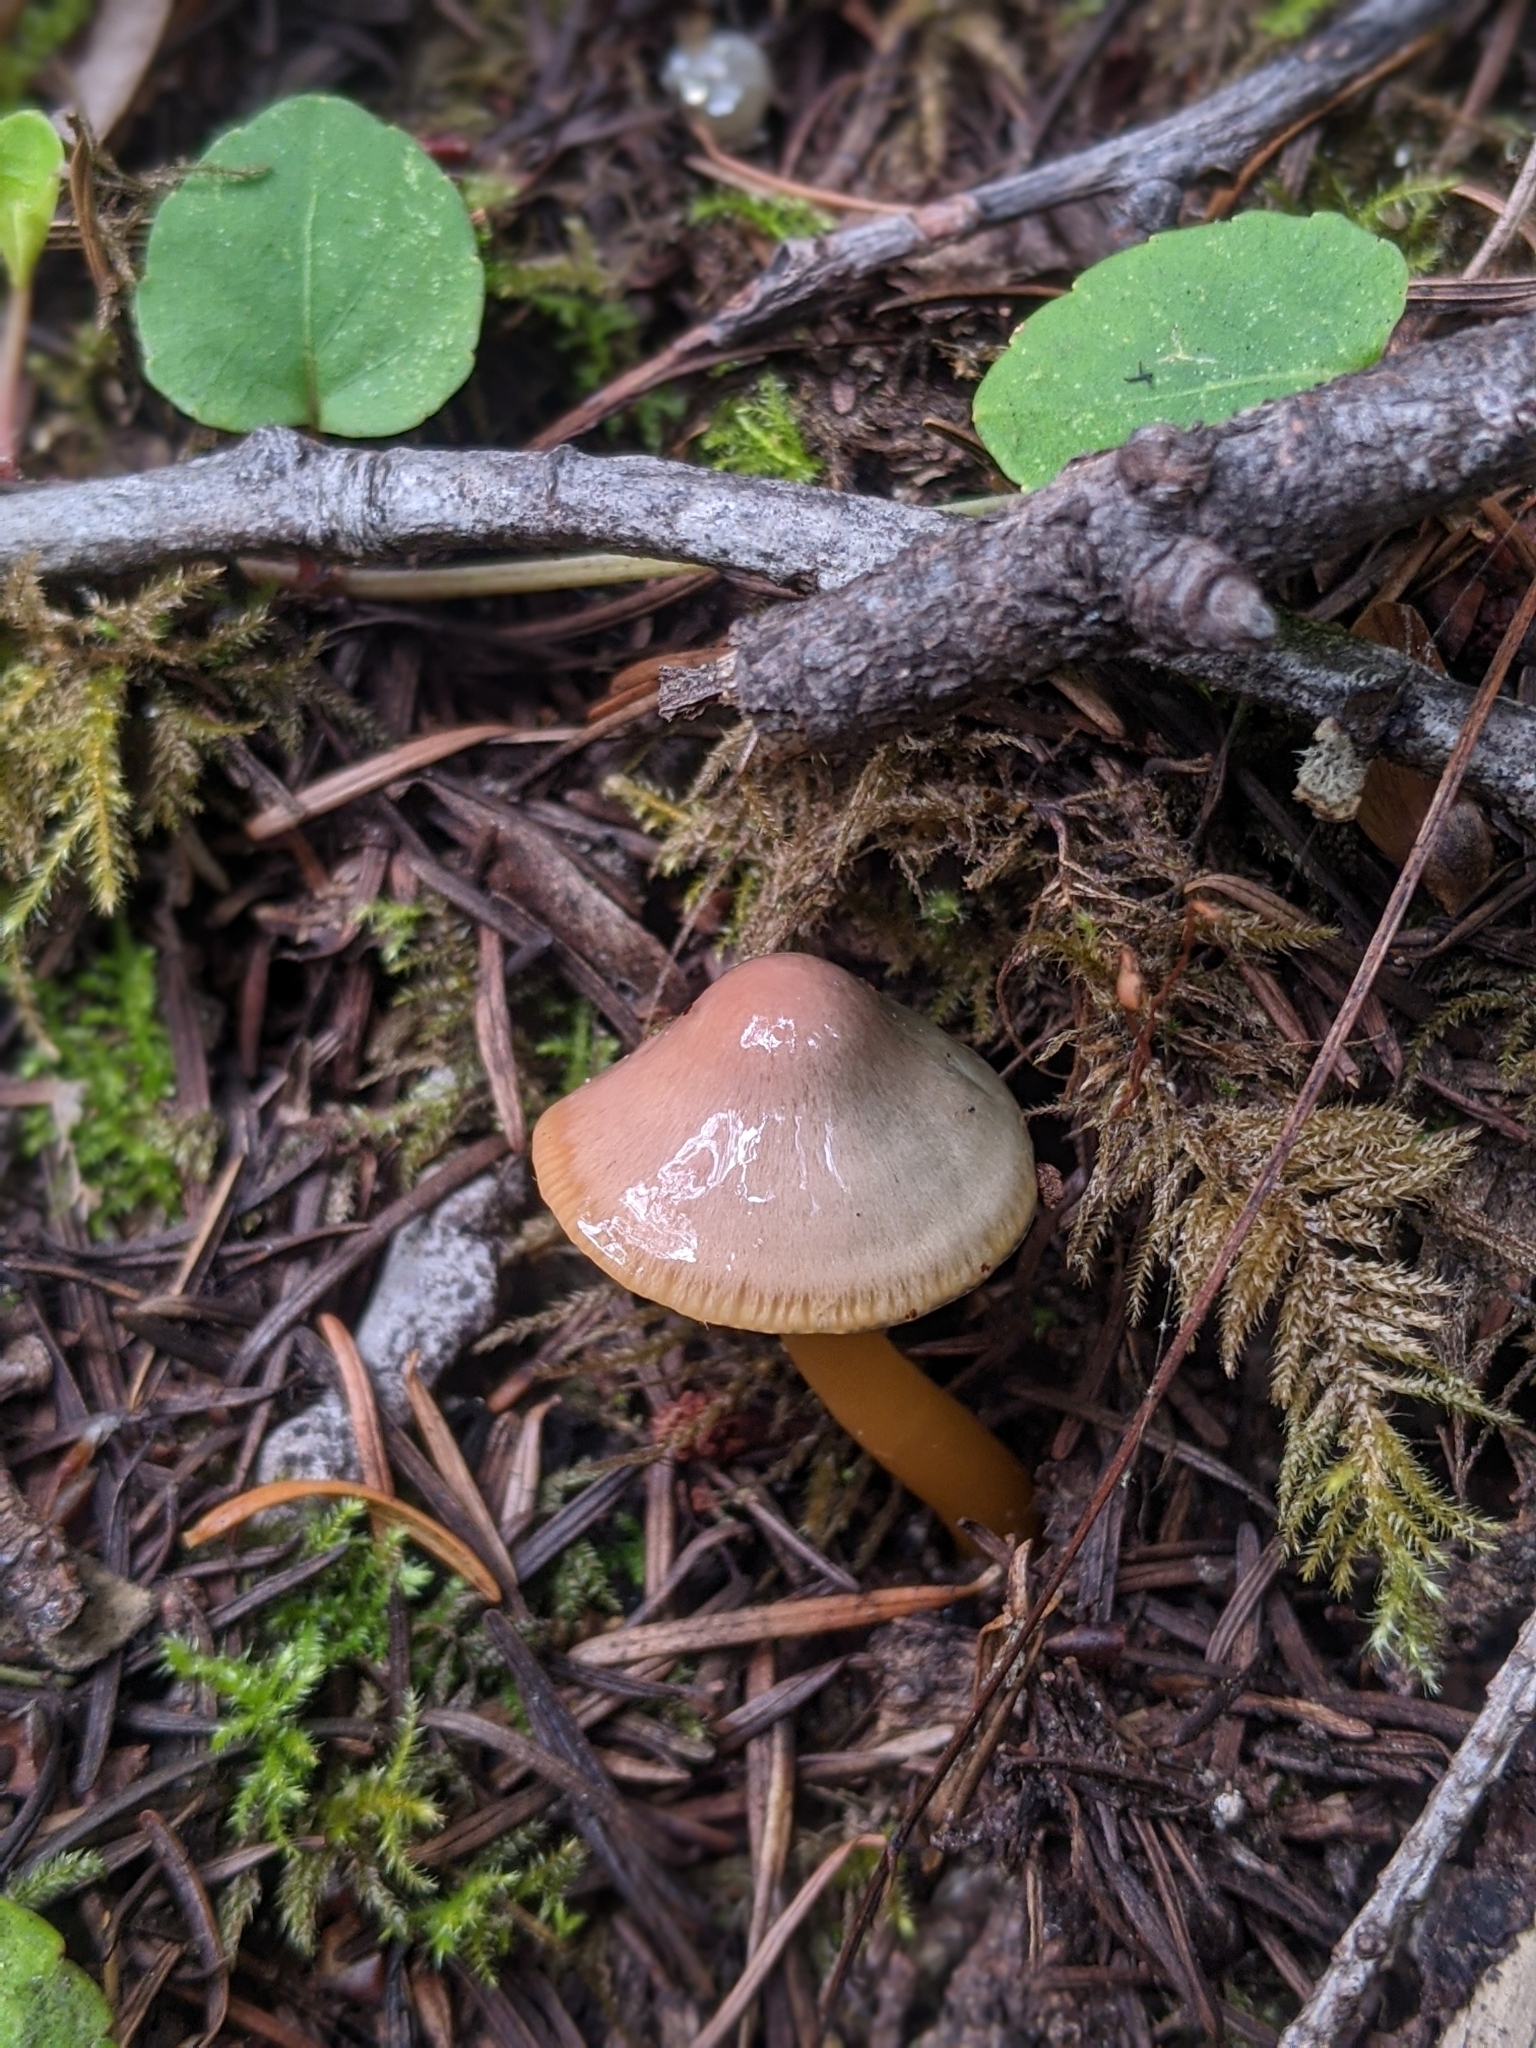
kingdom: Fungi
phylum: Basidiomycota
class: Agaricomycetes
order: Agaricales
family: Hygrophoraceae
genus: Gliophorus
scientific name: Gliophorus psittacinus
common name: Parrot wax-cap
